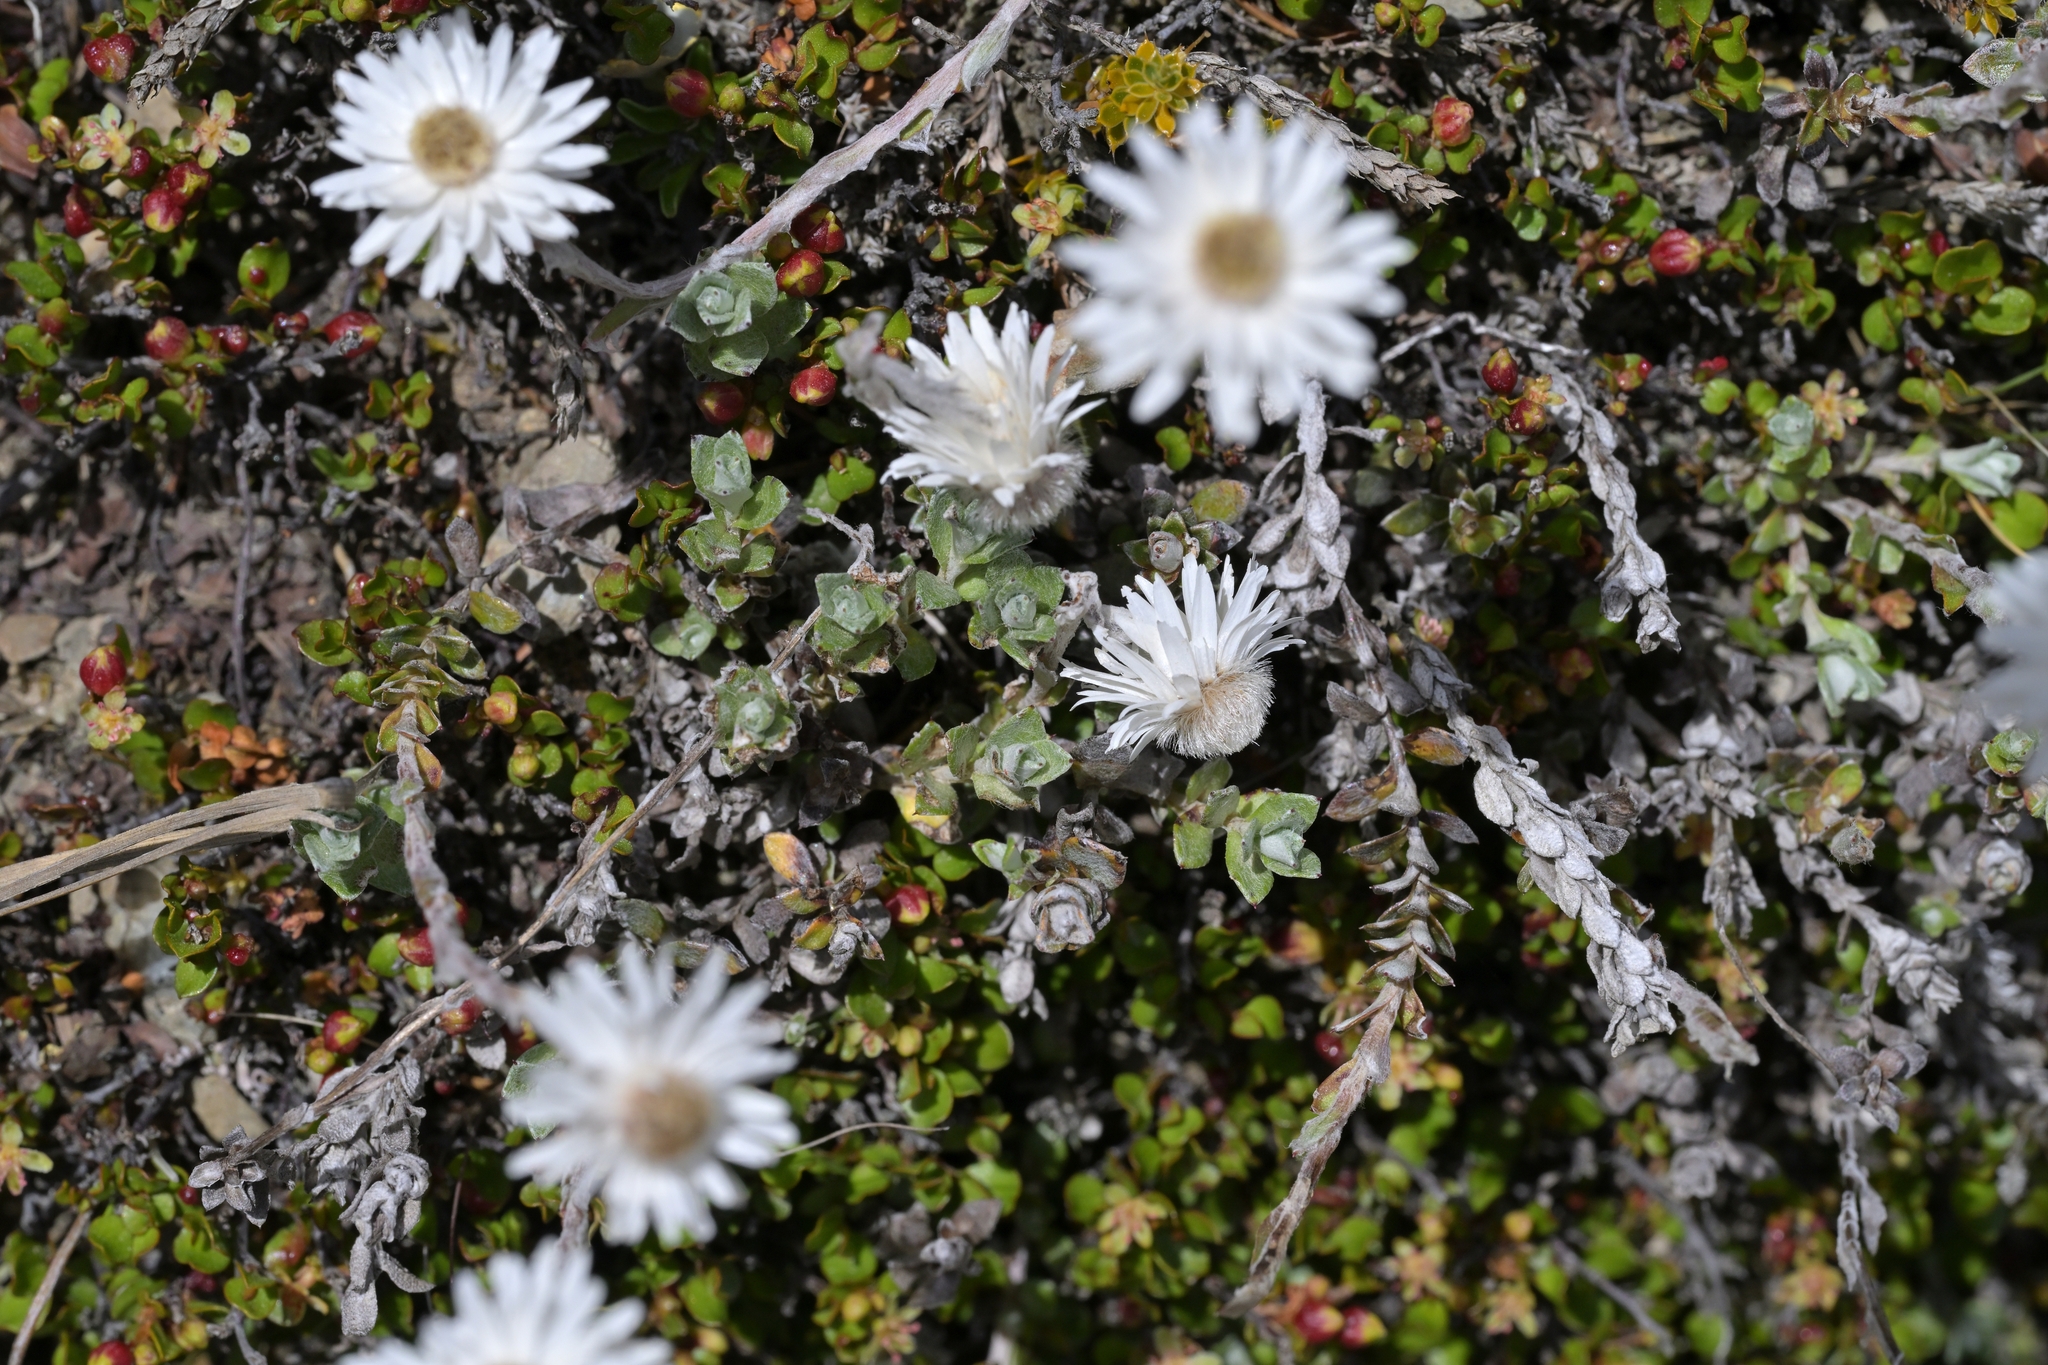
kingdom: Plantae
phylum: Tracheophyta
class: Magnoliopsida
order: Asterales
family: Asteraceae
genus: Anaphalioides
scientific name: Anaphalioides bellidioides
